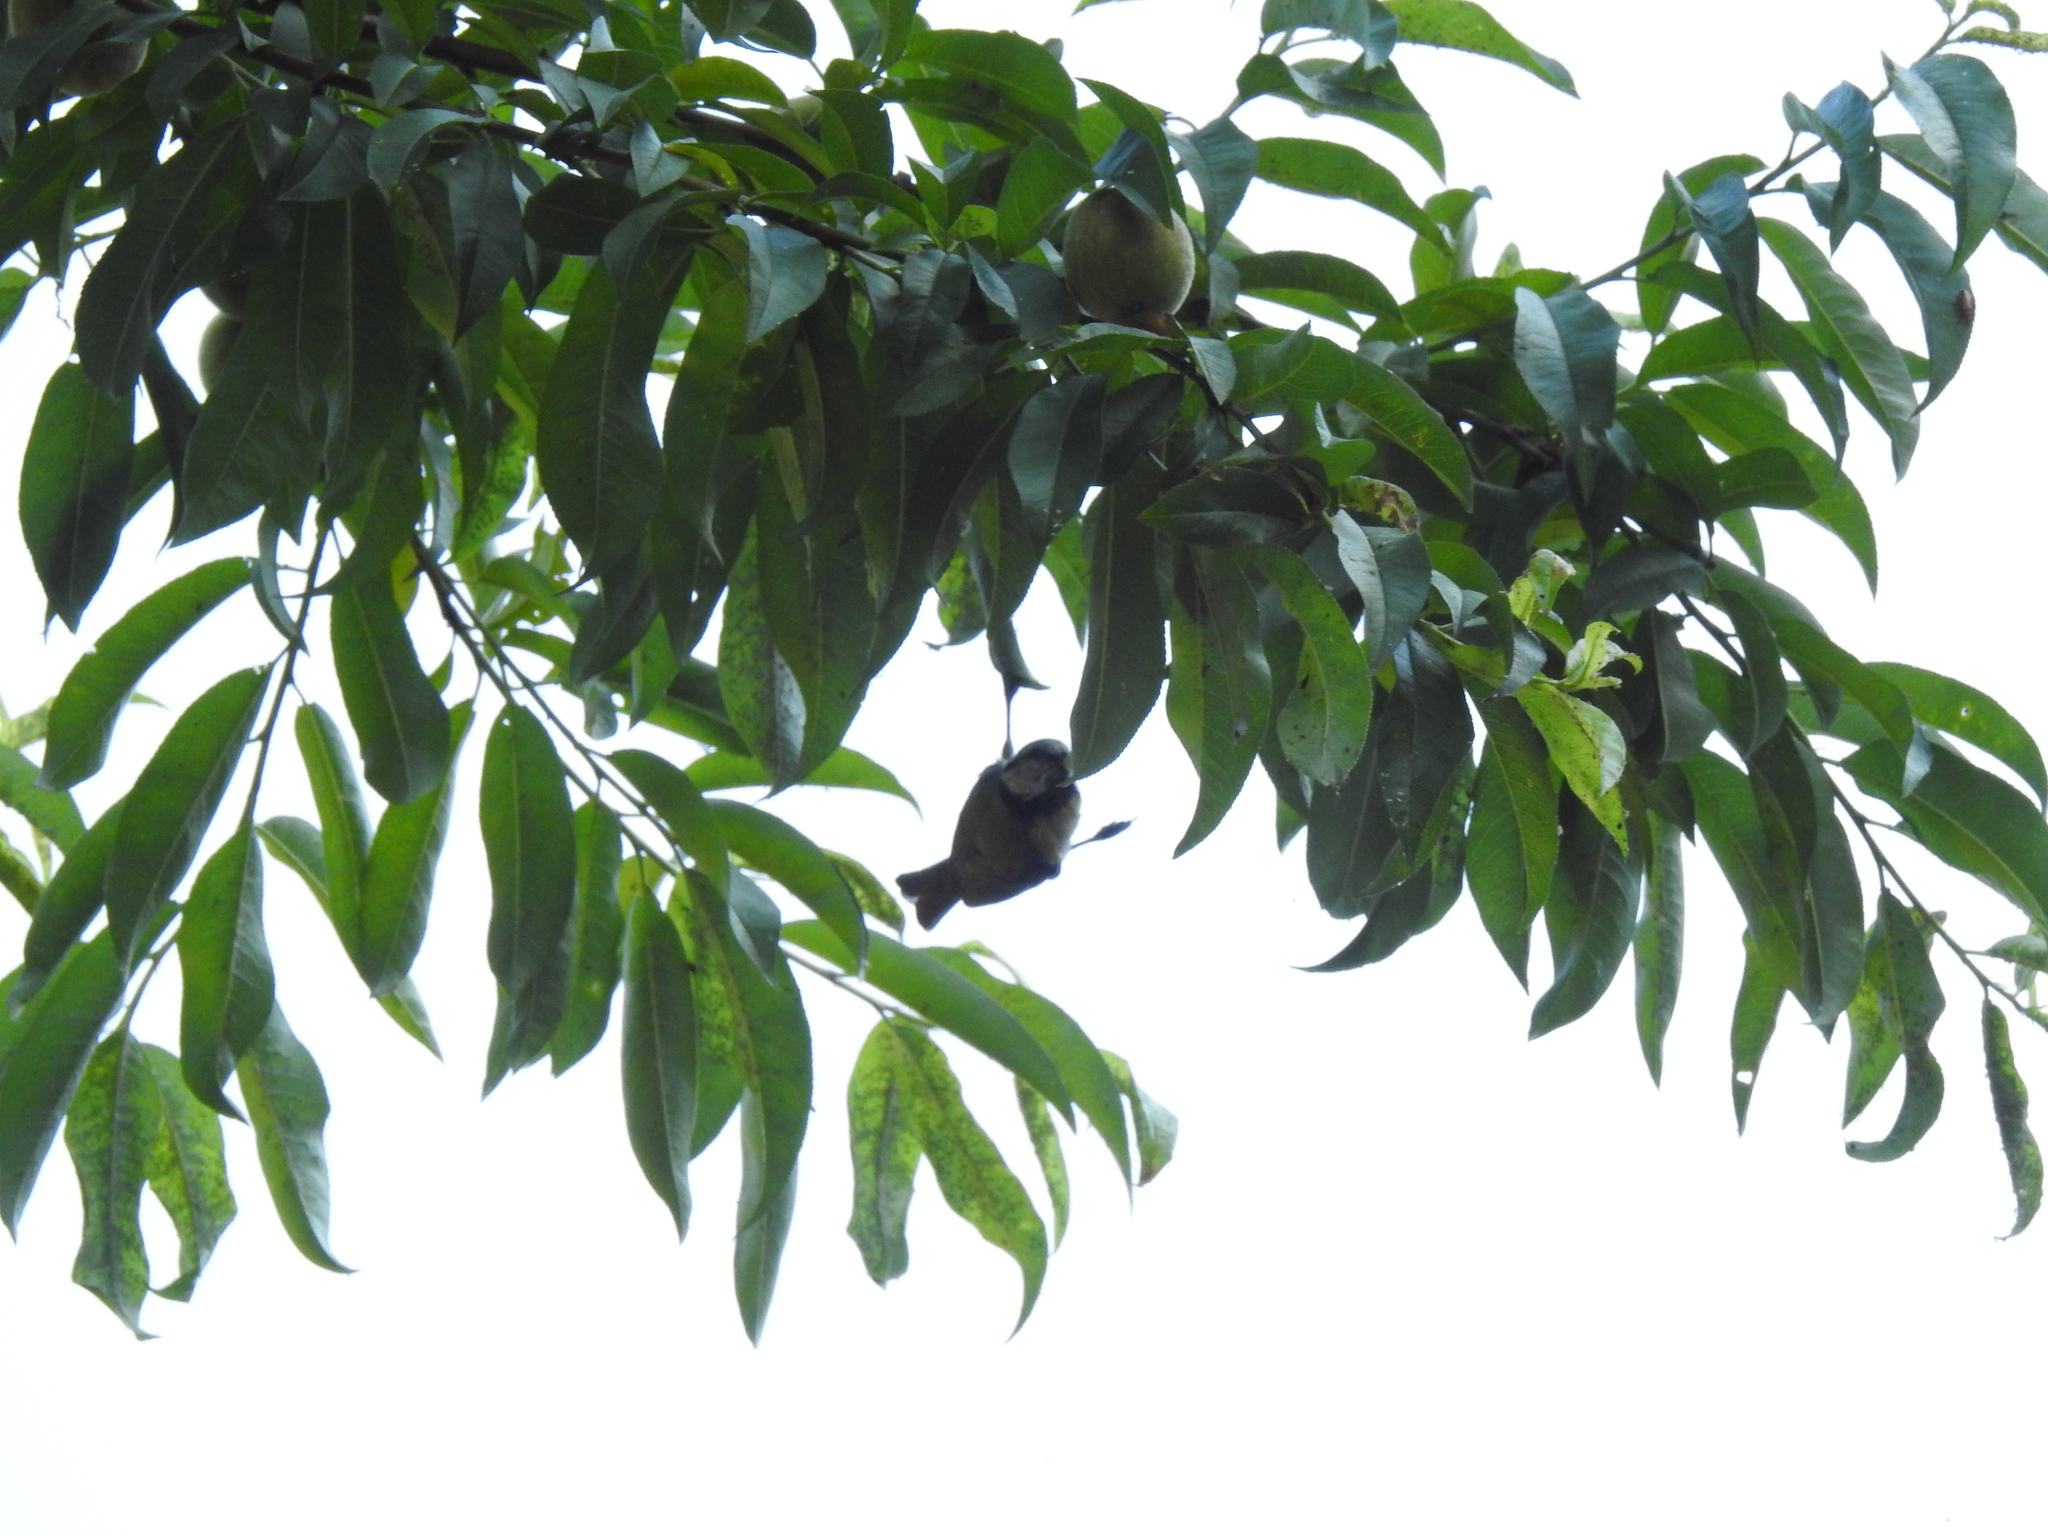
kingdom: Animalia
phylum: Chordata
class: Aves
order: Passeriformes
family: Paridae
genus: Cyanistes
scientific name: Cyanistes caeruleus
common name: Eurasian blue tit
